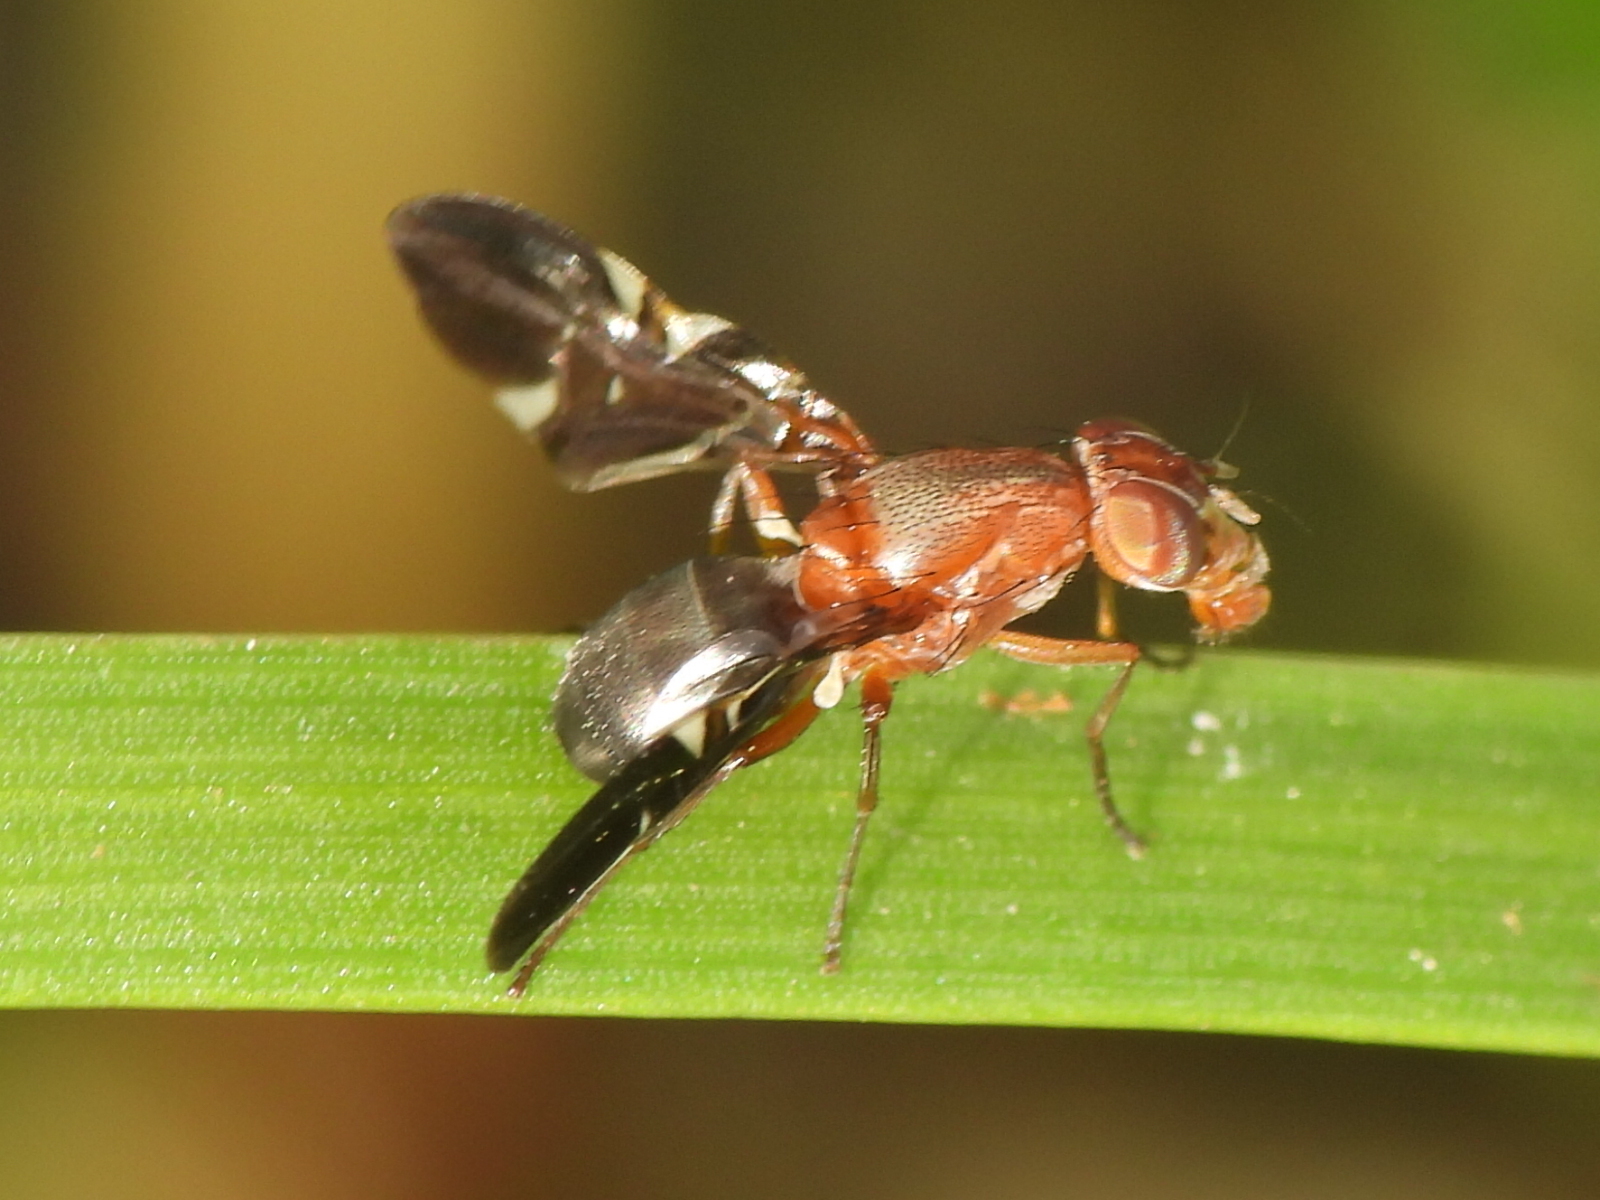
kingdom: Animalia
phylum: Arthropoda
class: Insecta
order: Diptera
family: Ulidiidae
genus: Delphinia
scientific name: Delphinia picta
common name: Common picture-winged fly
